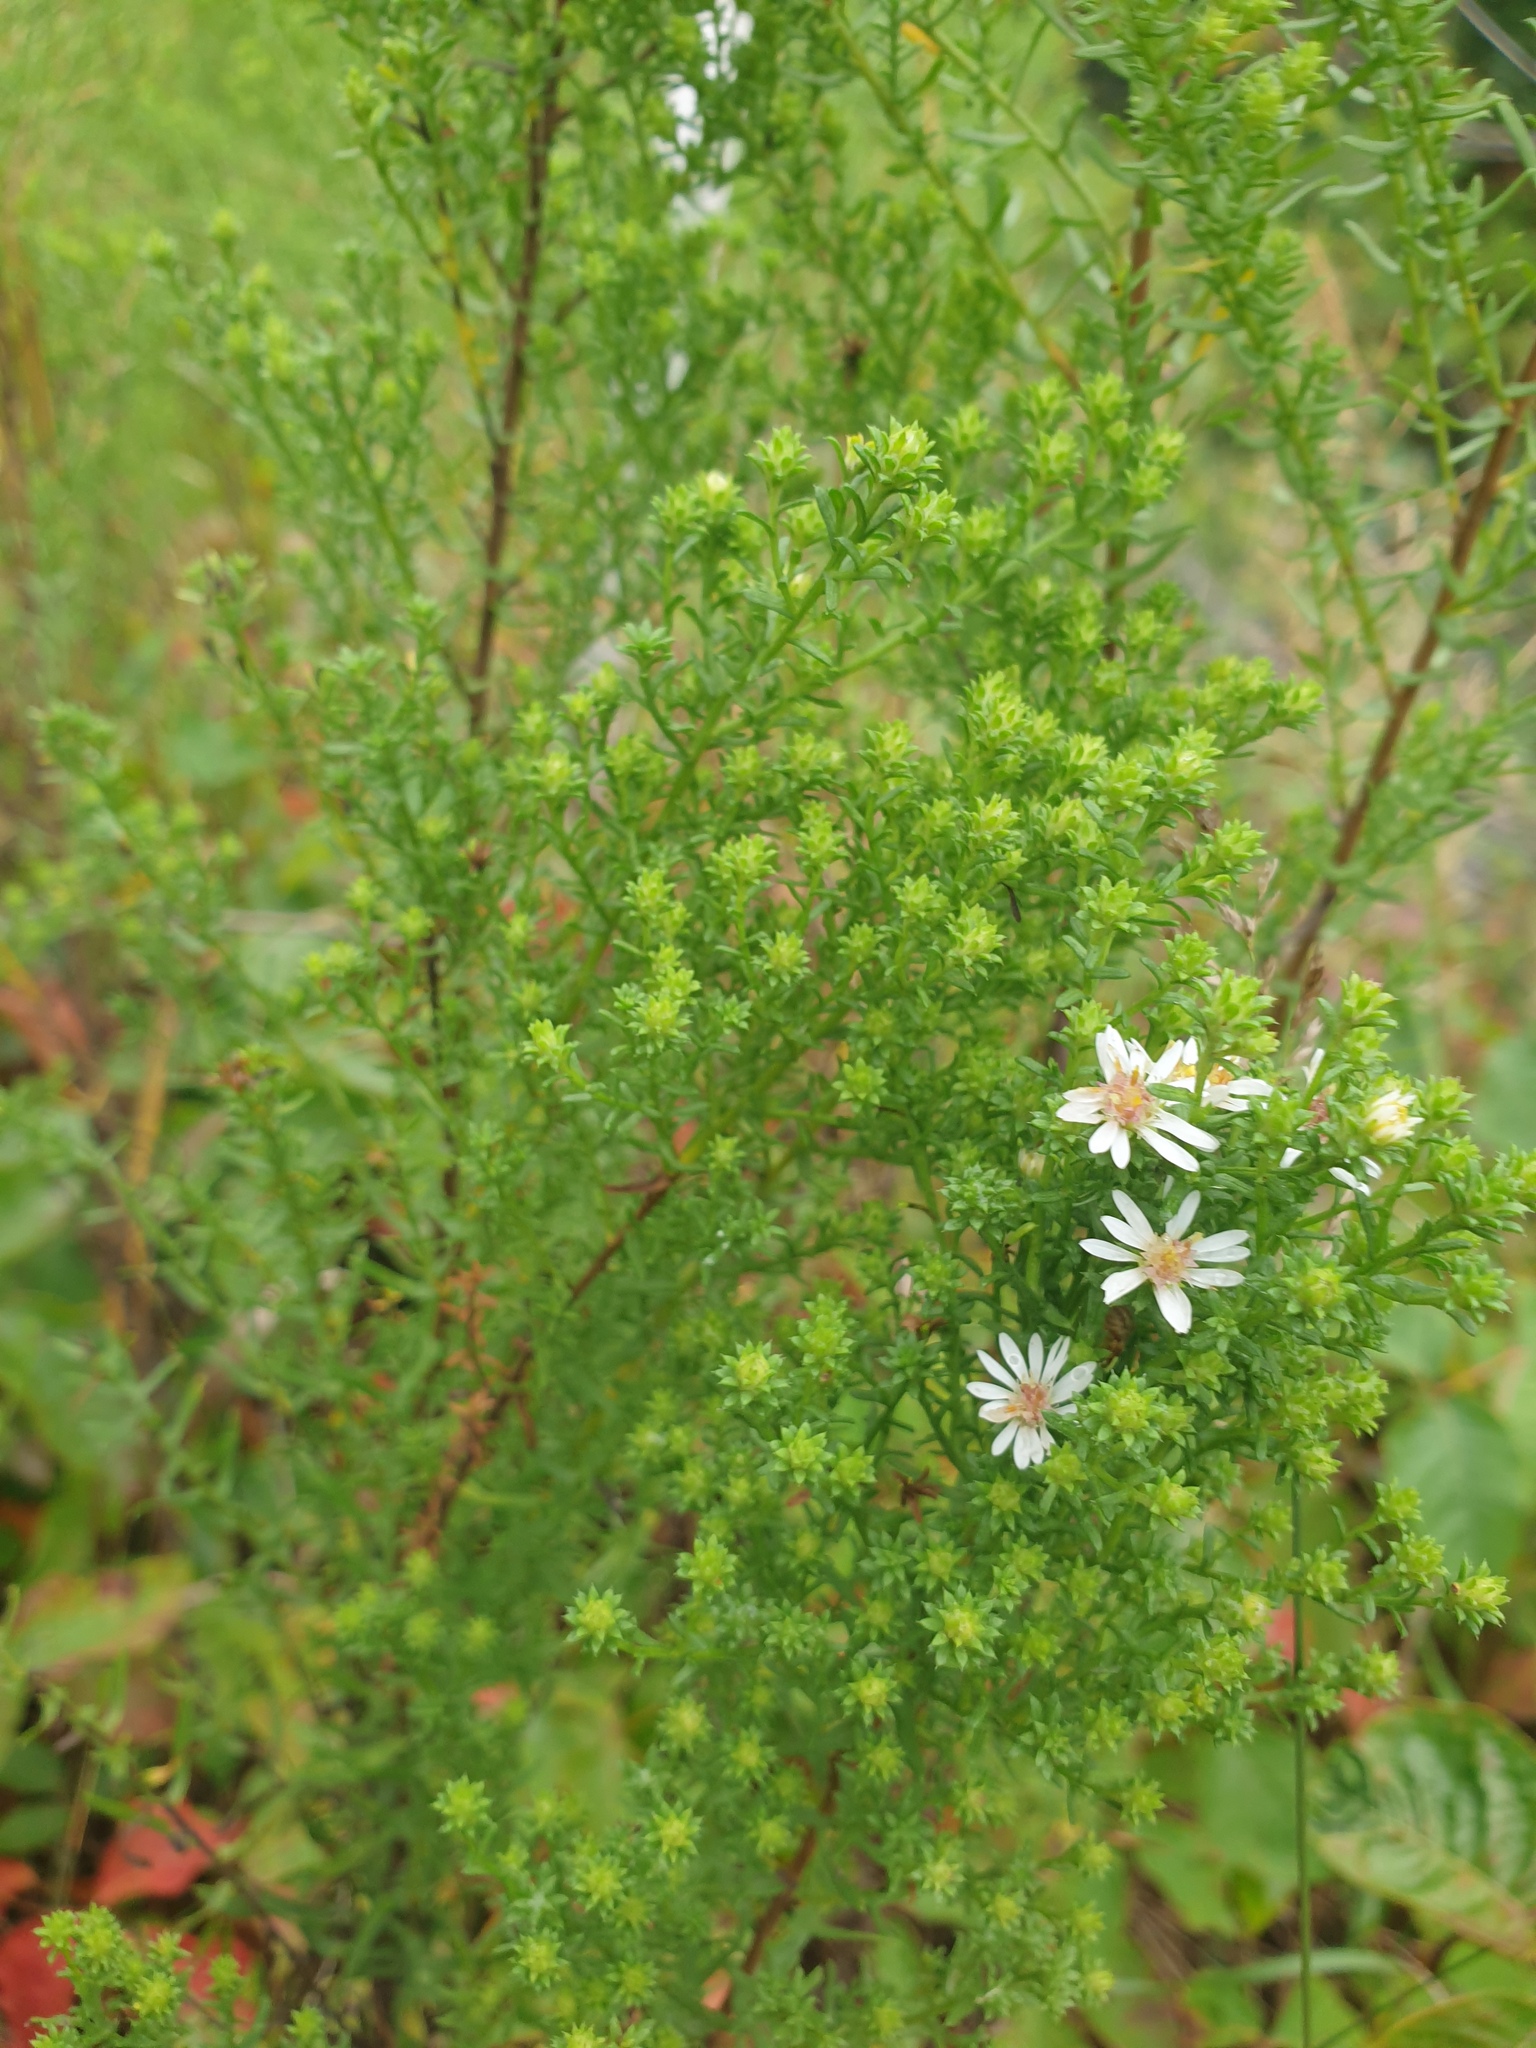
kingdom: Plantae
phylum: Tracheophyta
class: Magnoliopsida
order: Asterales
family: Asteraceae
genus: Symphyotrichum
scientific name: Symphyotrichum ericoides
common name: Heath aster
